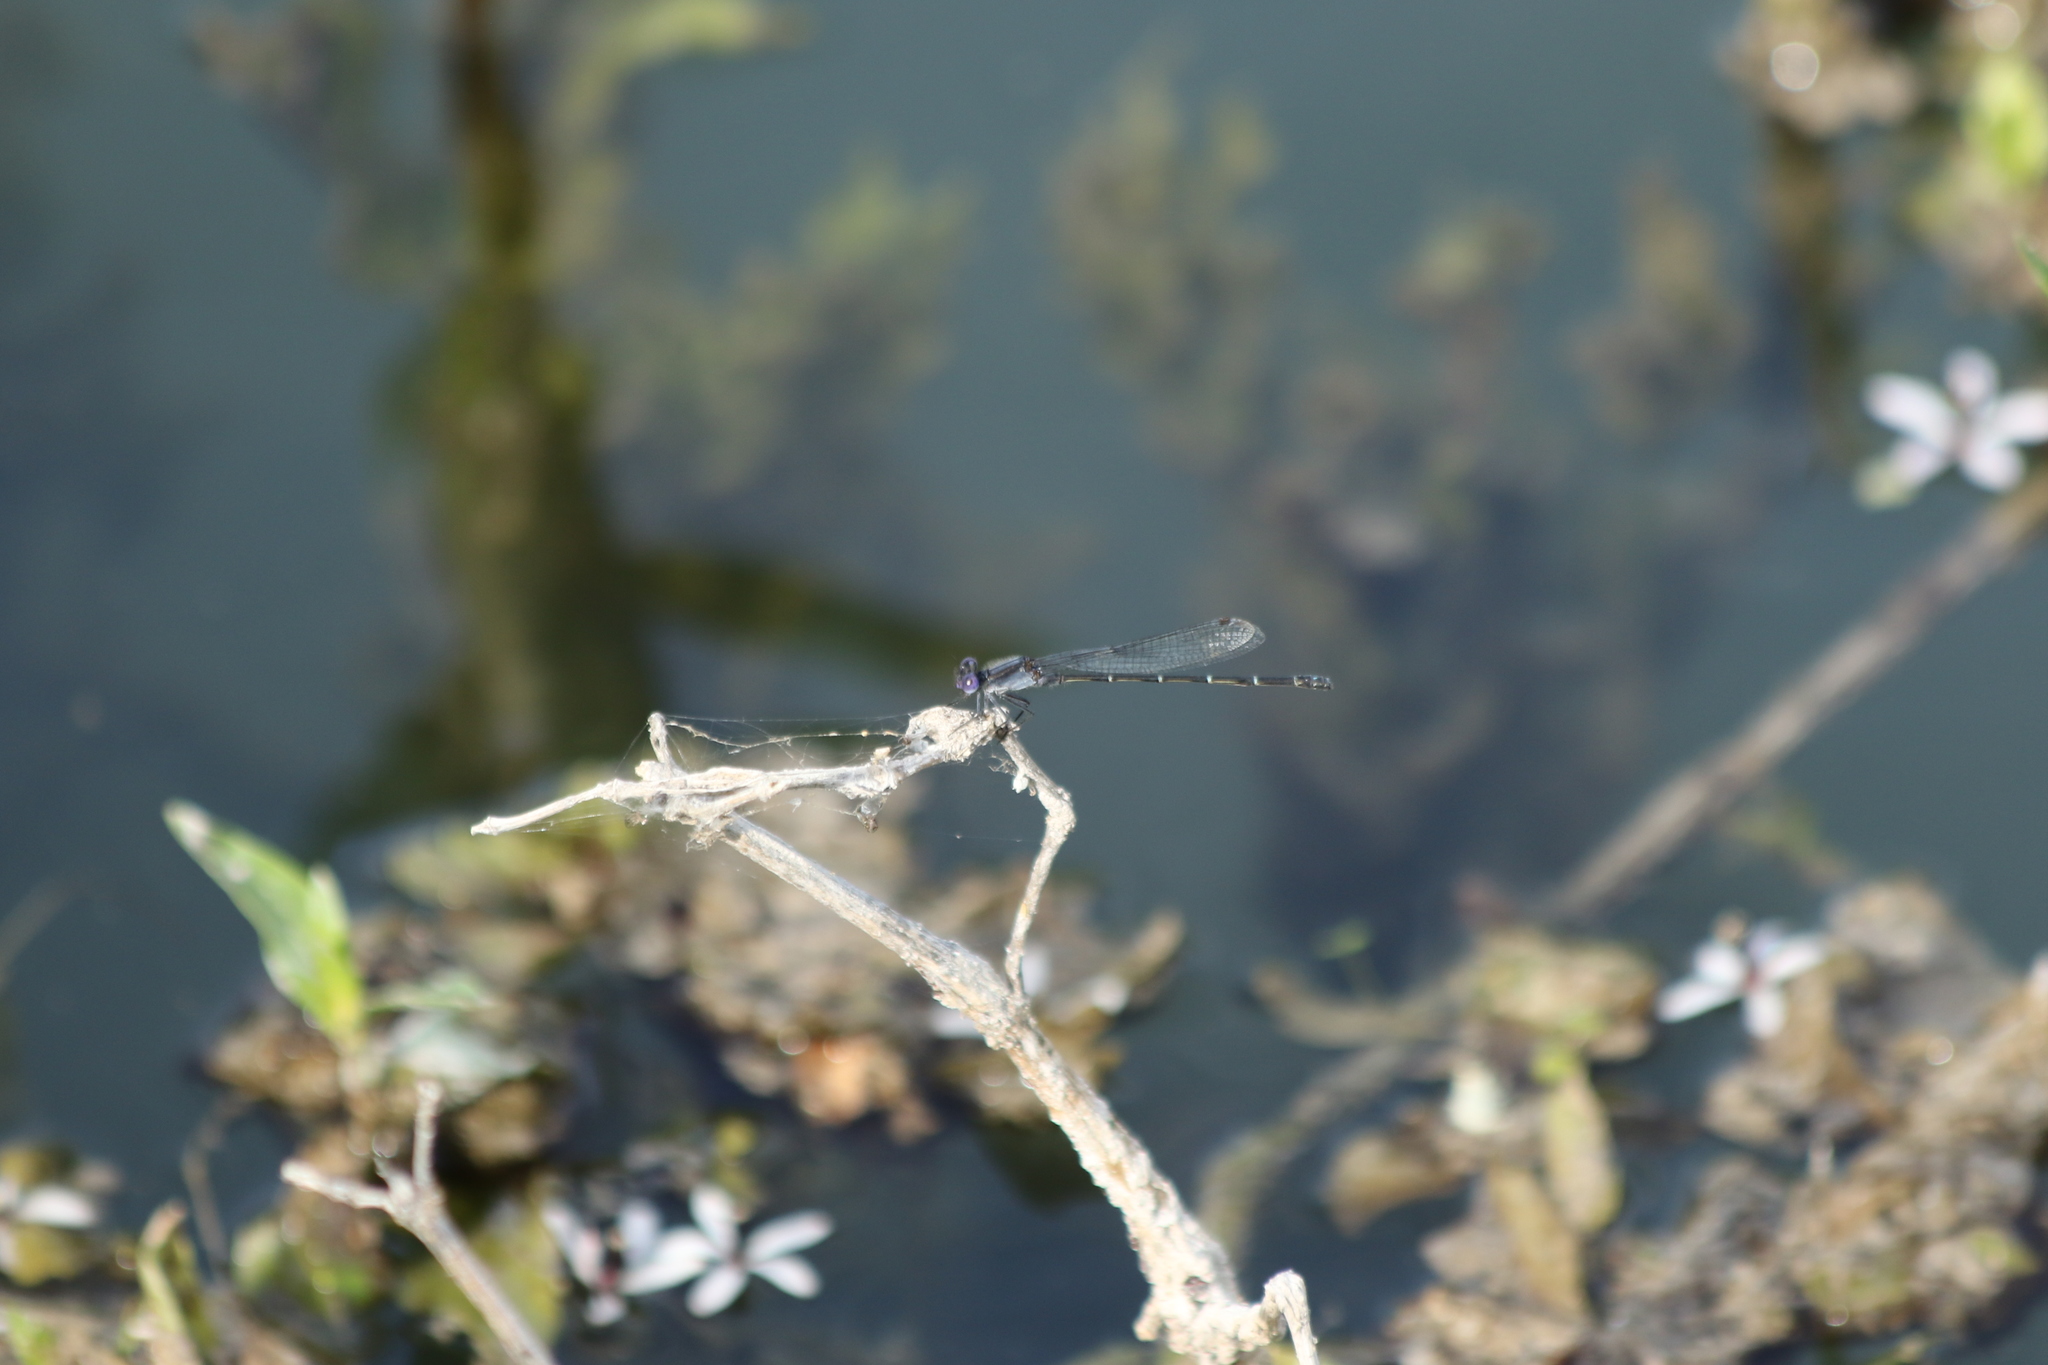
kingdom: Animalia
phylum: Arthropoda
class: Insecta
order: Odonata
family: Coenagrionidae
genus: Argia
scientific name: Argia translata
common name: Dusky dancer
